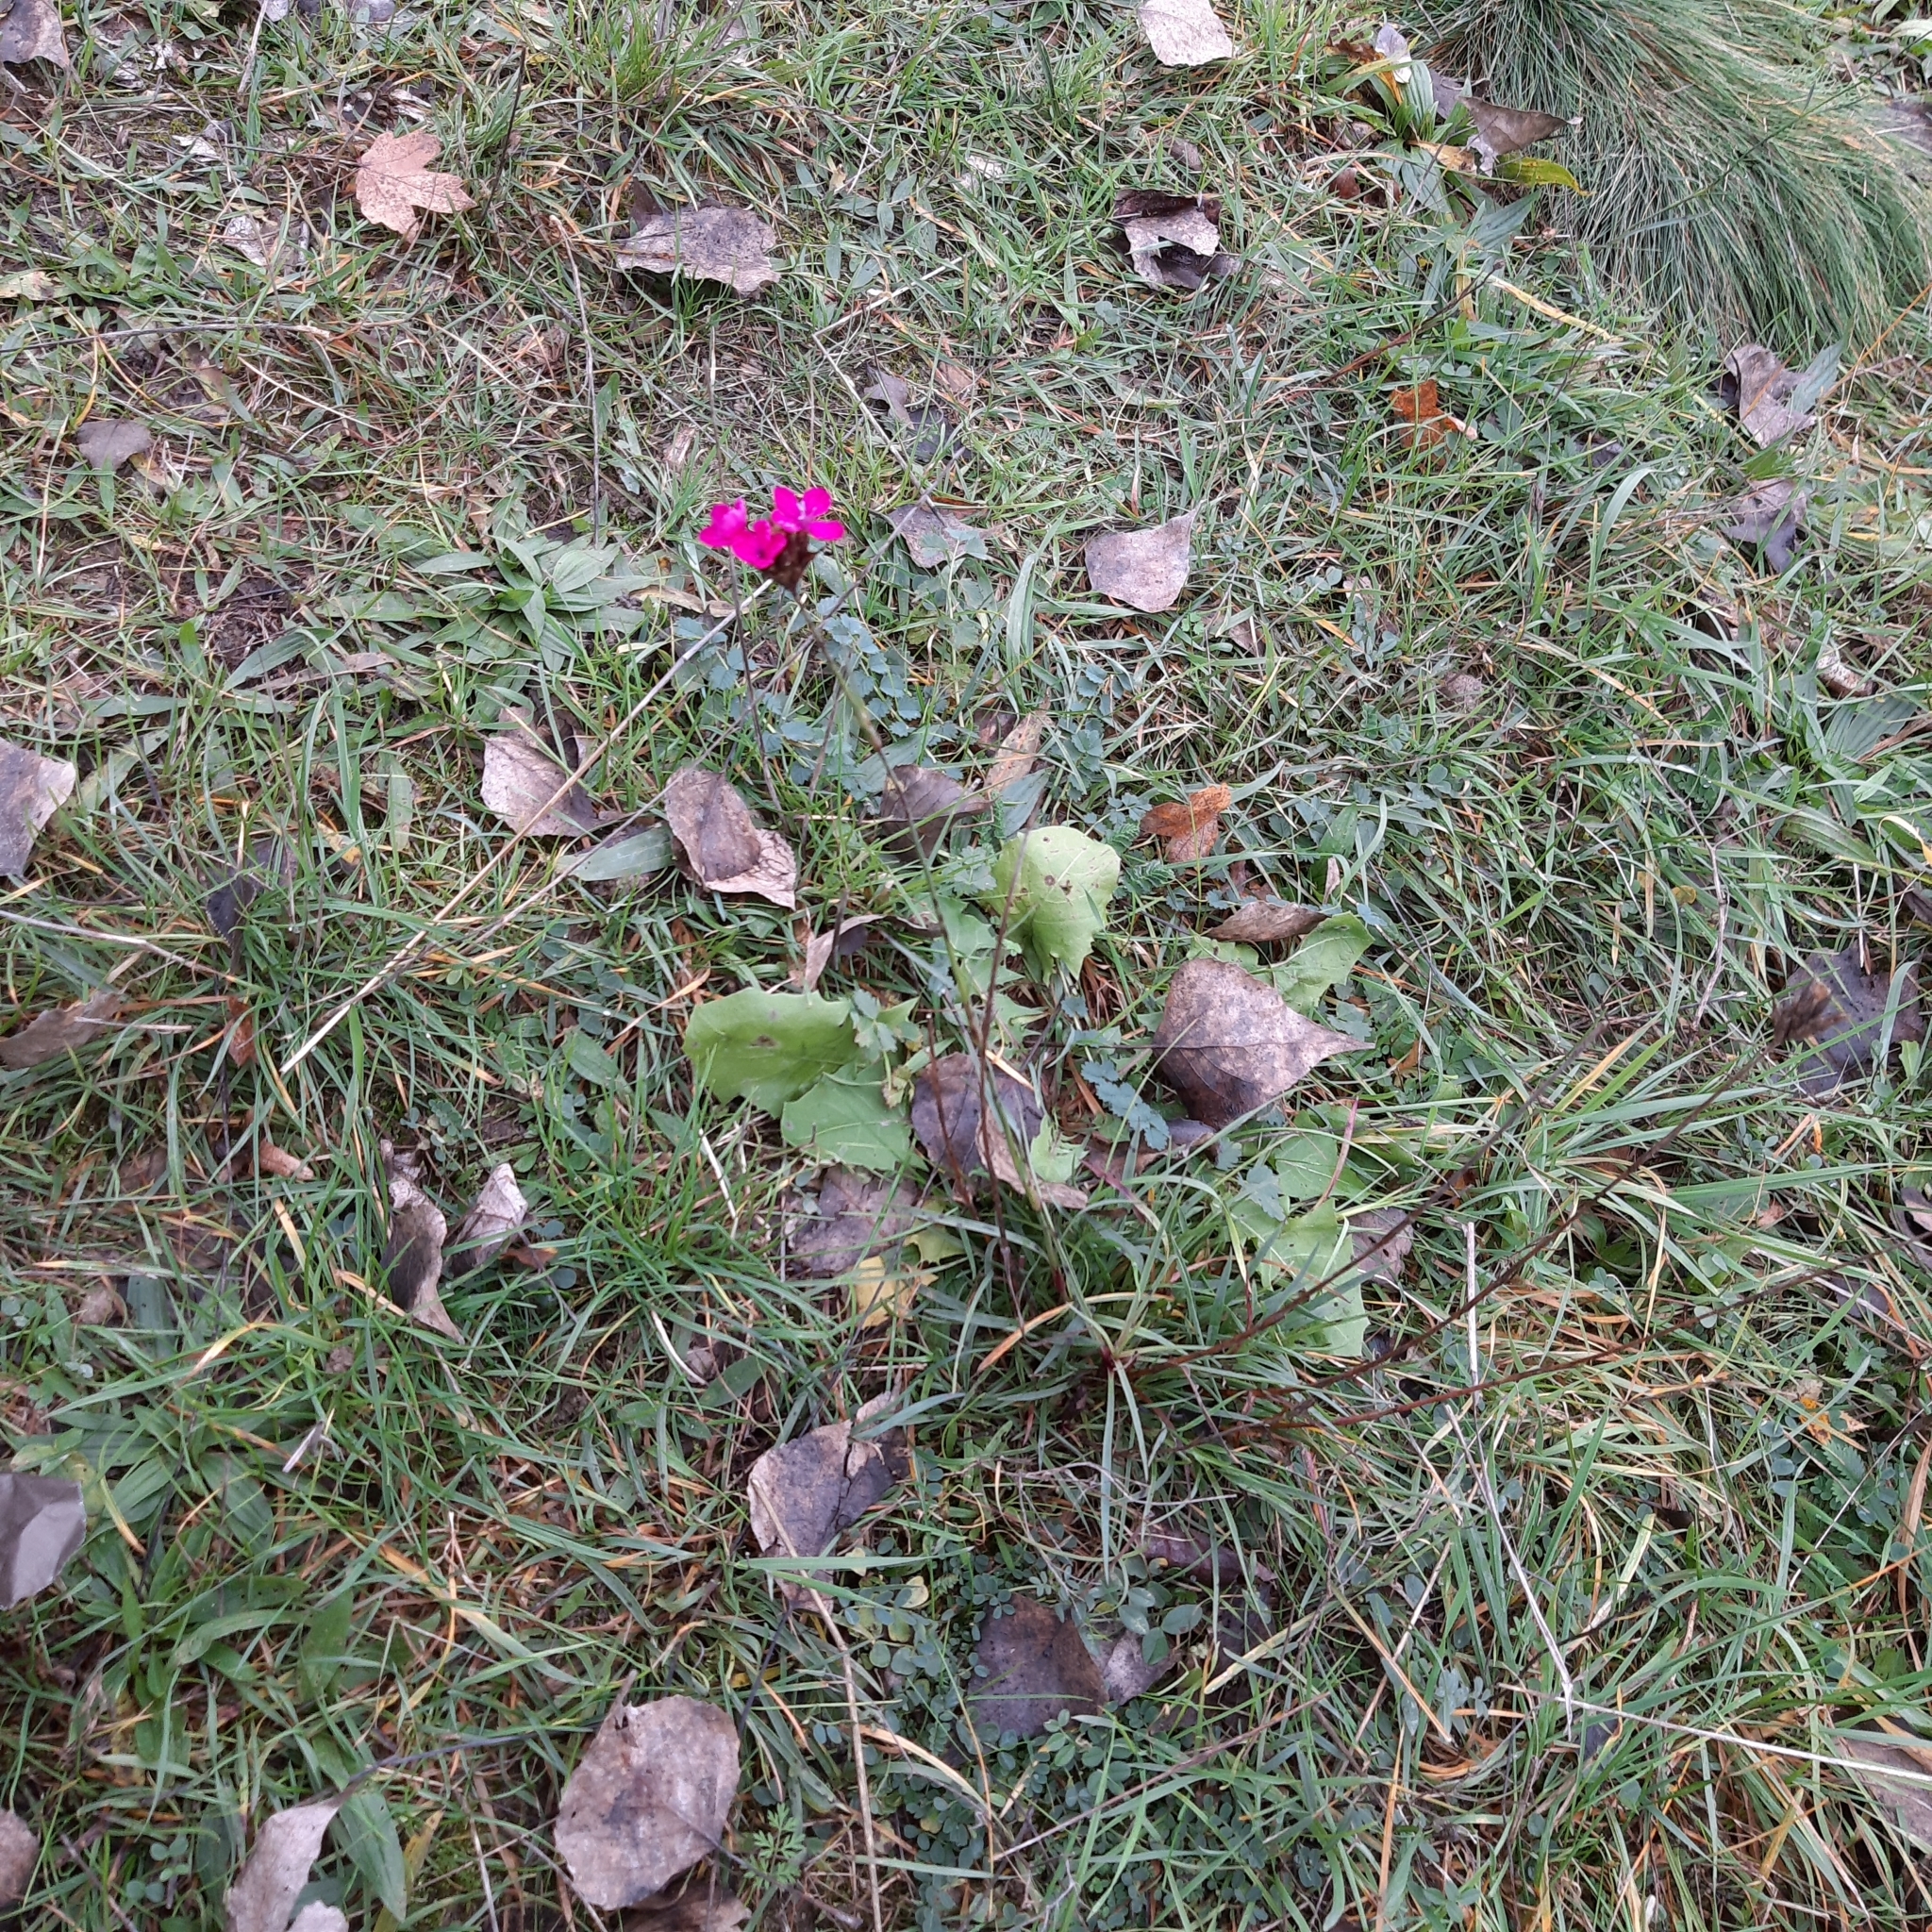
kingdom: Plantae
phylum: Tracheophyta
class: Magnoliopsida
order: Caryophyllales
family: Caryophyllaceae
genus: Dianthus
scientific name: Dianthus carthusianorum
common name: Carthusian pink
